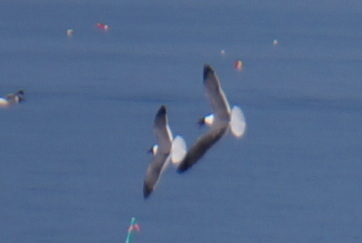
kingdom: Animalia
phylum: Chordata
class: Aves
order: Charadriiformes
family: Laridae
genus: Leucophaeus
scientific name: Leucophaeus atricilla
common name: Laughing gull
